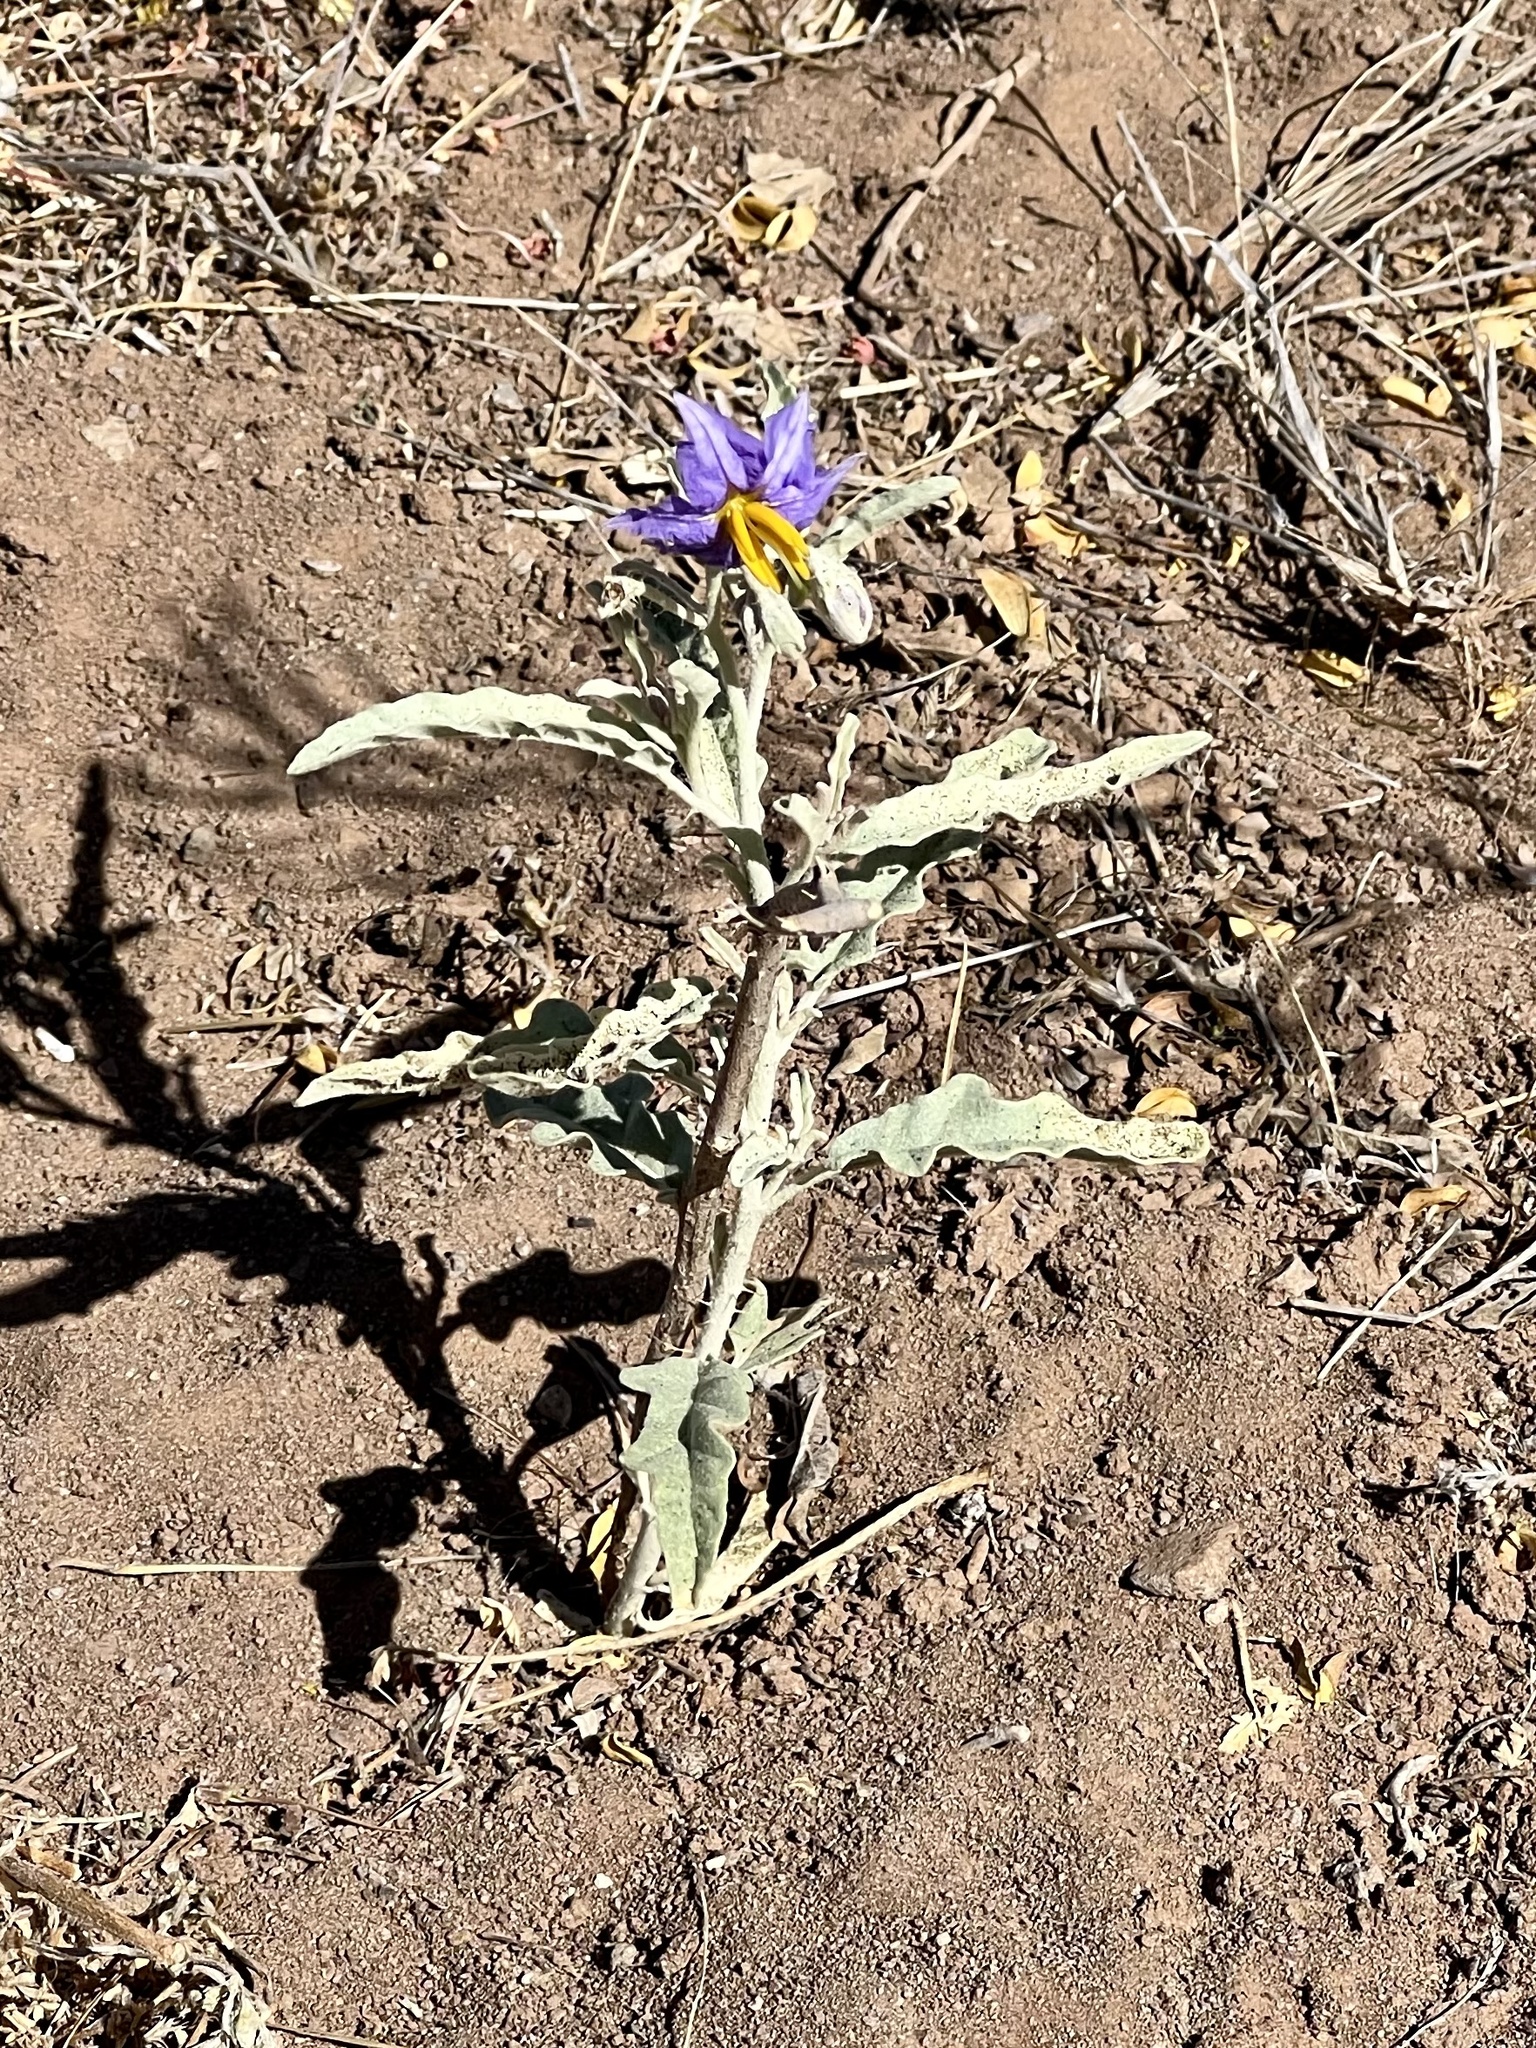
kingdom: Plantae
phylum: Tracheophyta
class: Magnoliopsida
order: Solanales
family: Solanaceae
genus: Solanum
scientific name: Solanum elaeagnifolium
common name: Silverleaf nightshade
